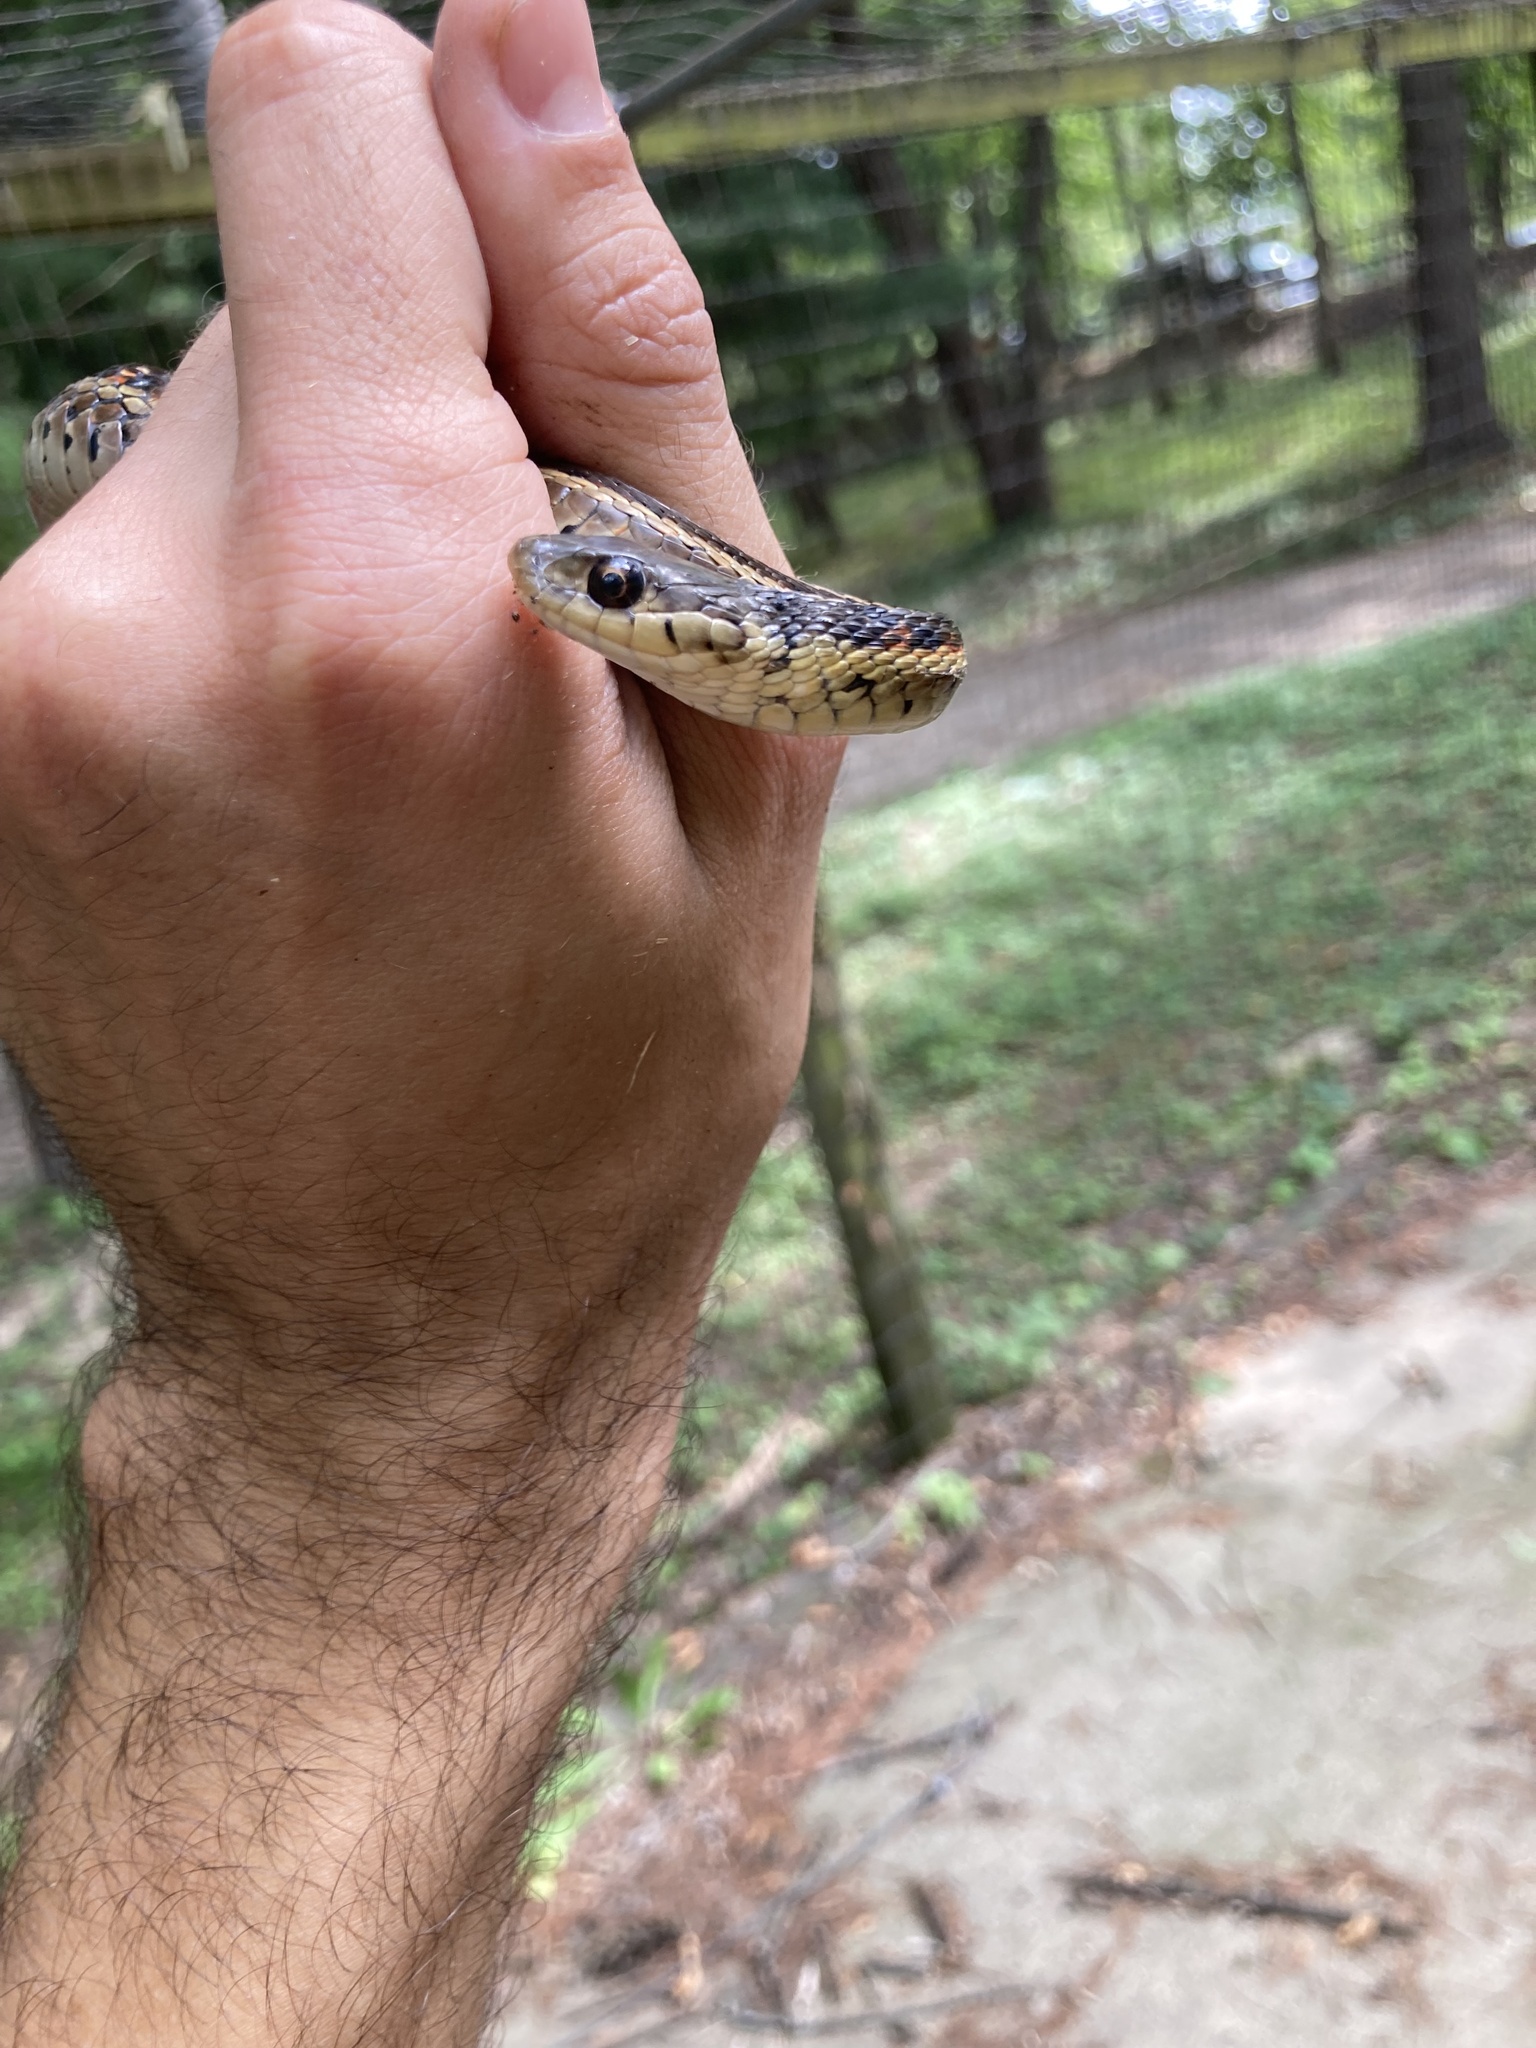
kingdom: Animalia
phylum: Chordata
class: Squamata
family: Colubridae
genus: Thamnophis
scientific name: Thamnophis sirtalis
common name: Common garter snake
